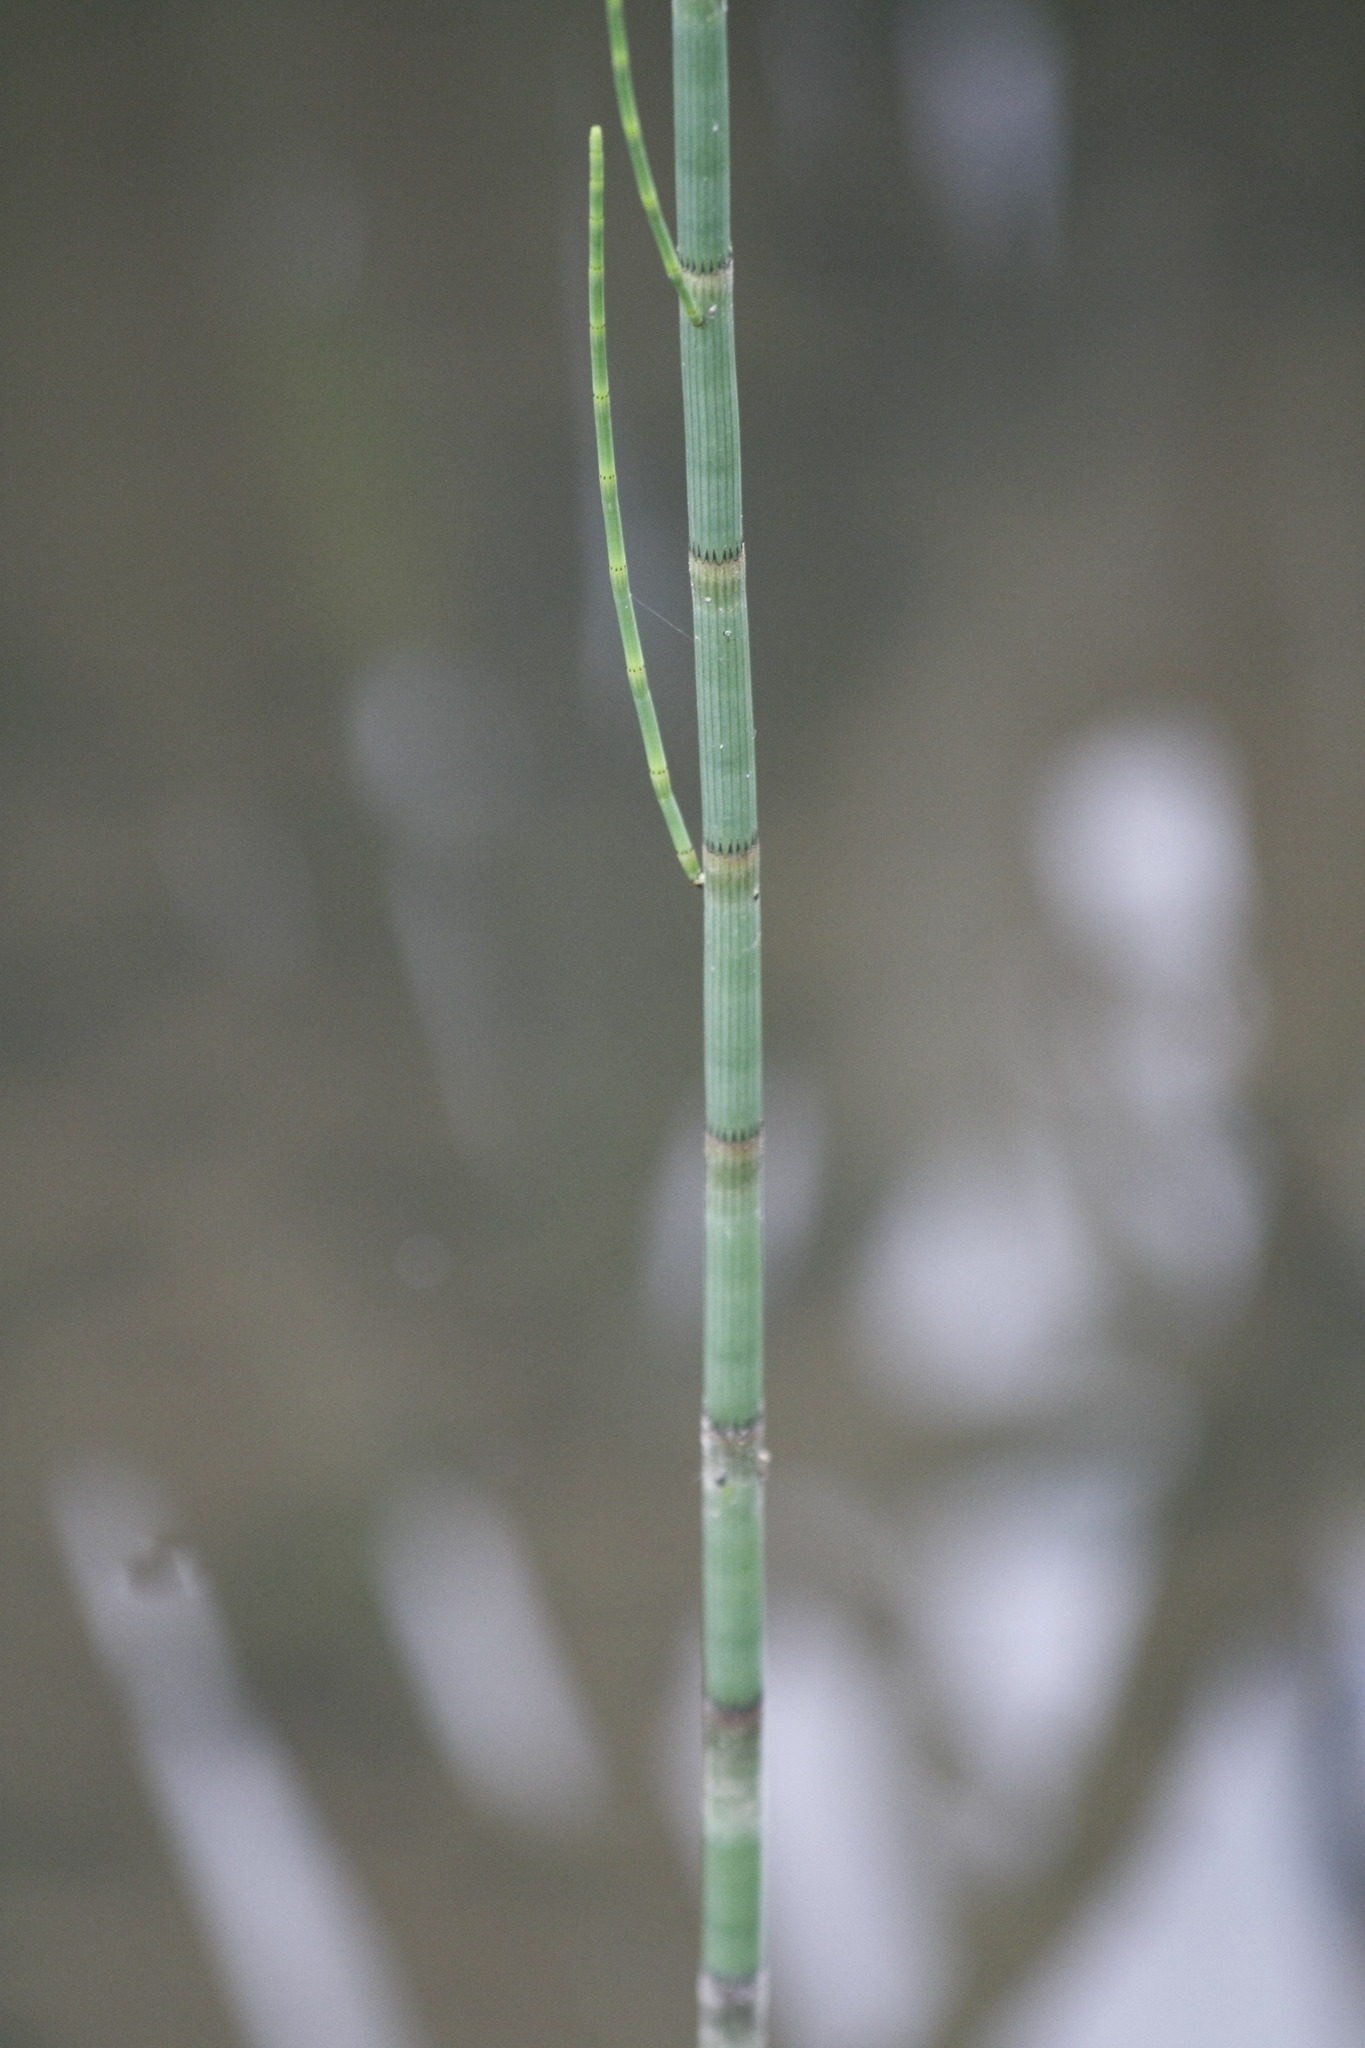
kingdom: Plantae
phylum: Tracheophyta
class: Polypodiopsida
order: Equisetales
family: Equisetaceae
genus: Equisetum
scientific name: Equisetum fluviatile
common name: Water horsetail
